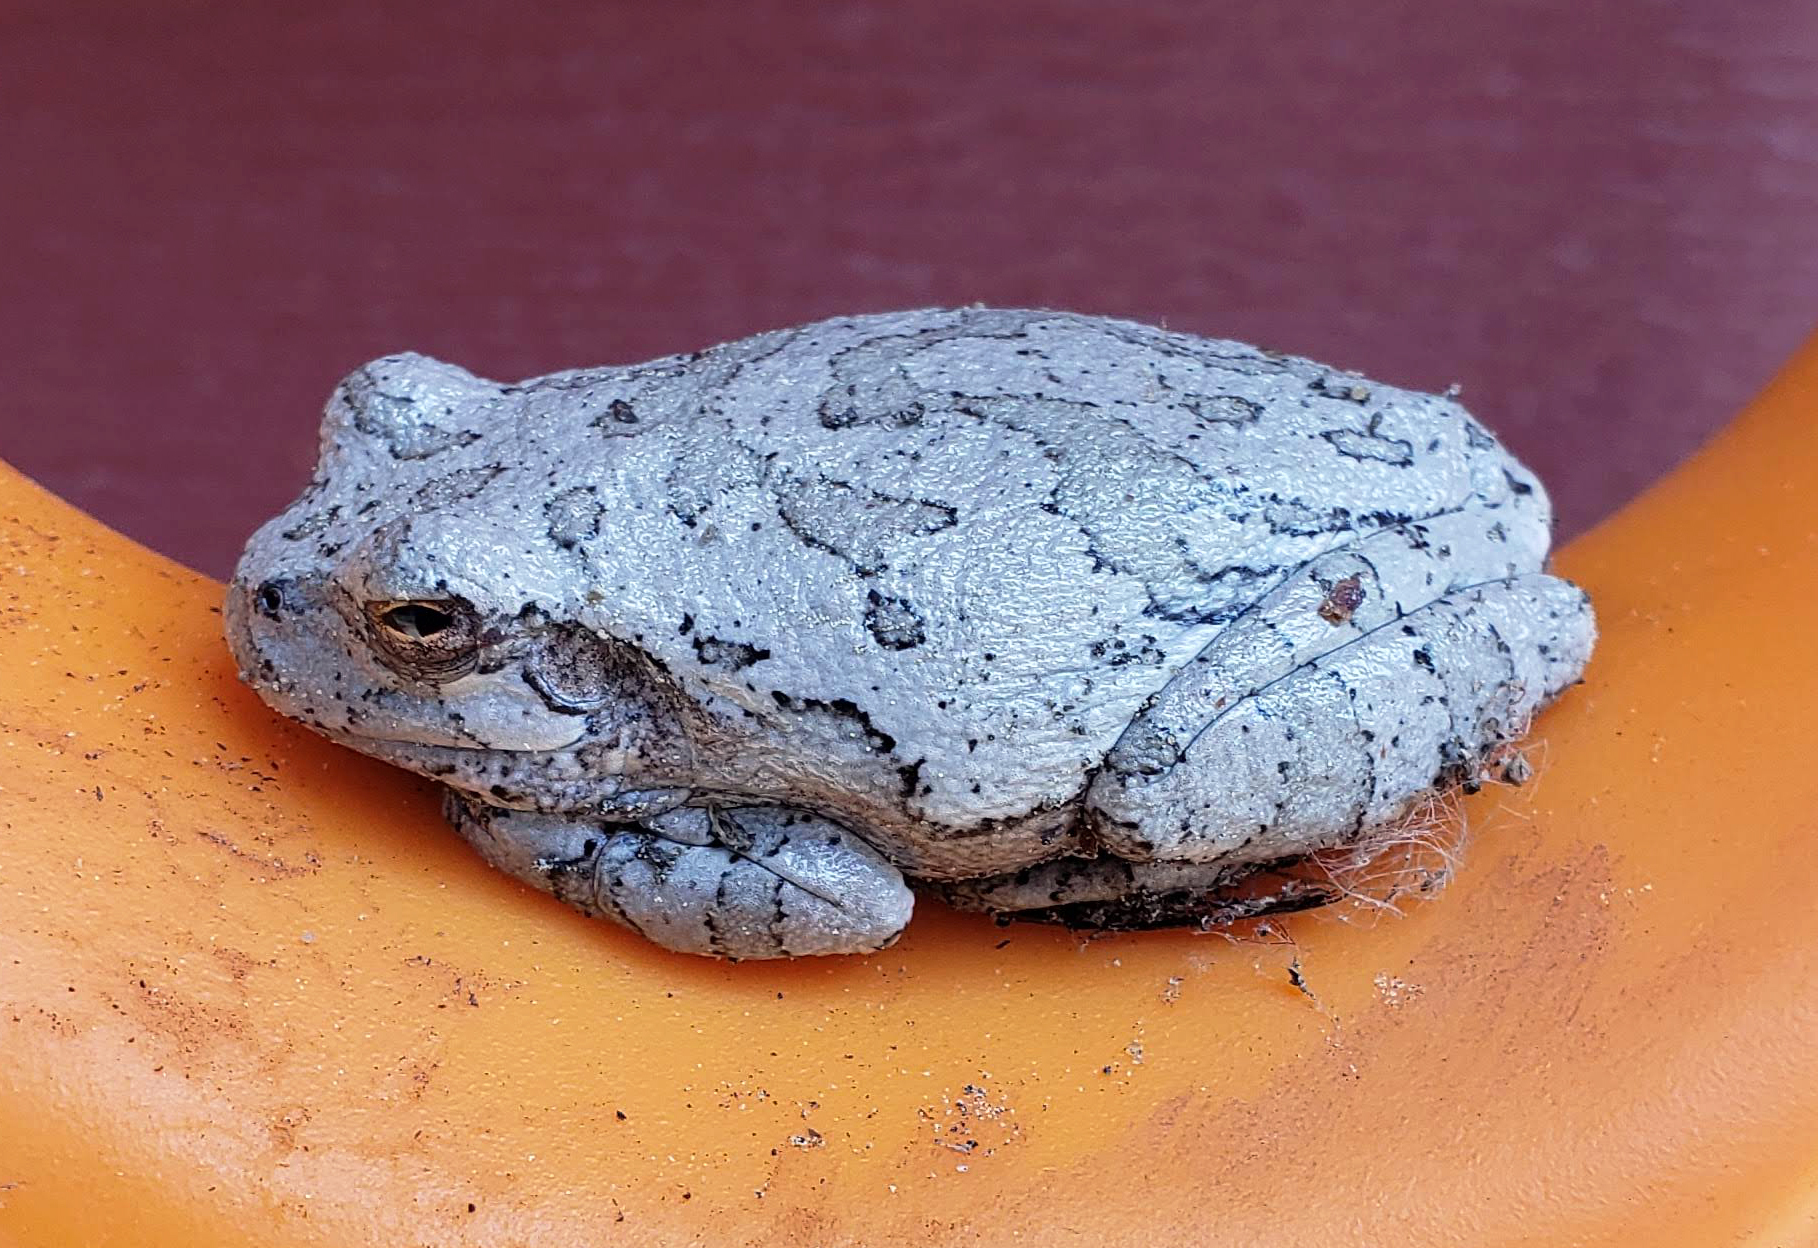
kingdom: Animalia
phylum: Chordata
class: Amphibia
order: Anura
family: Hylidae
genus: Dryophytes
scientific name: Dryophytes chrysoscelis
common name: Cope's gray treefrog
